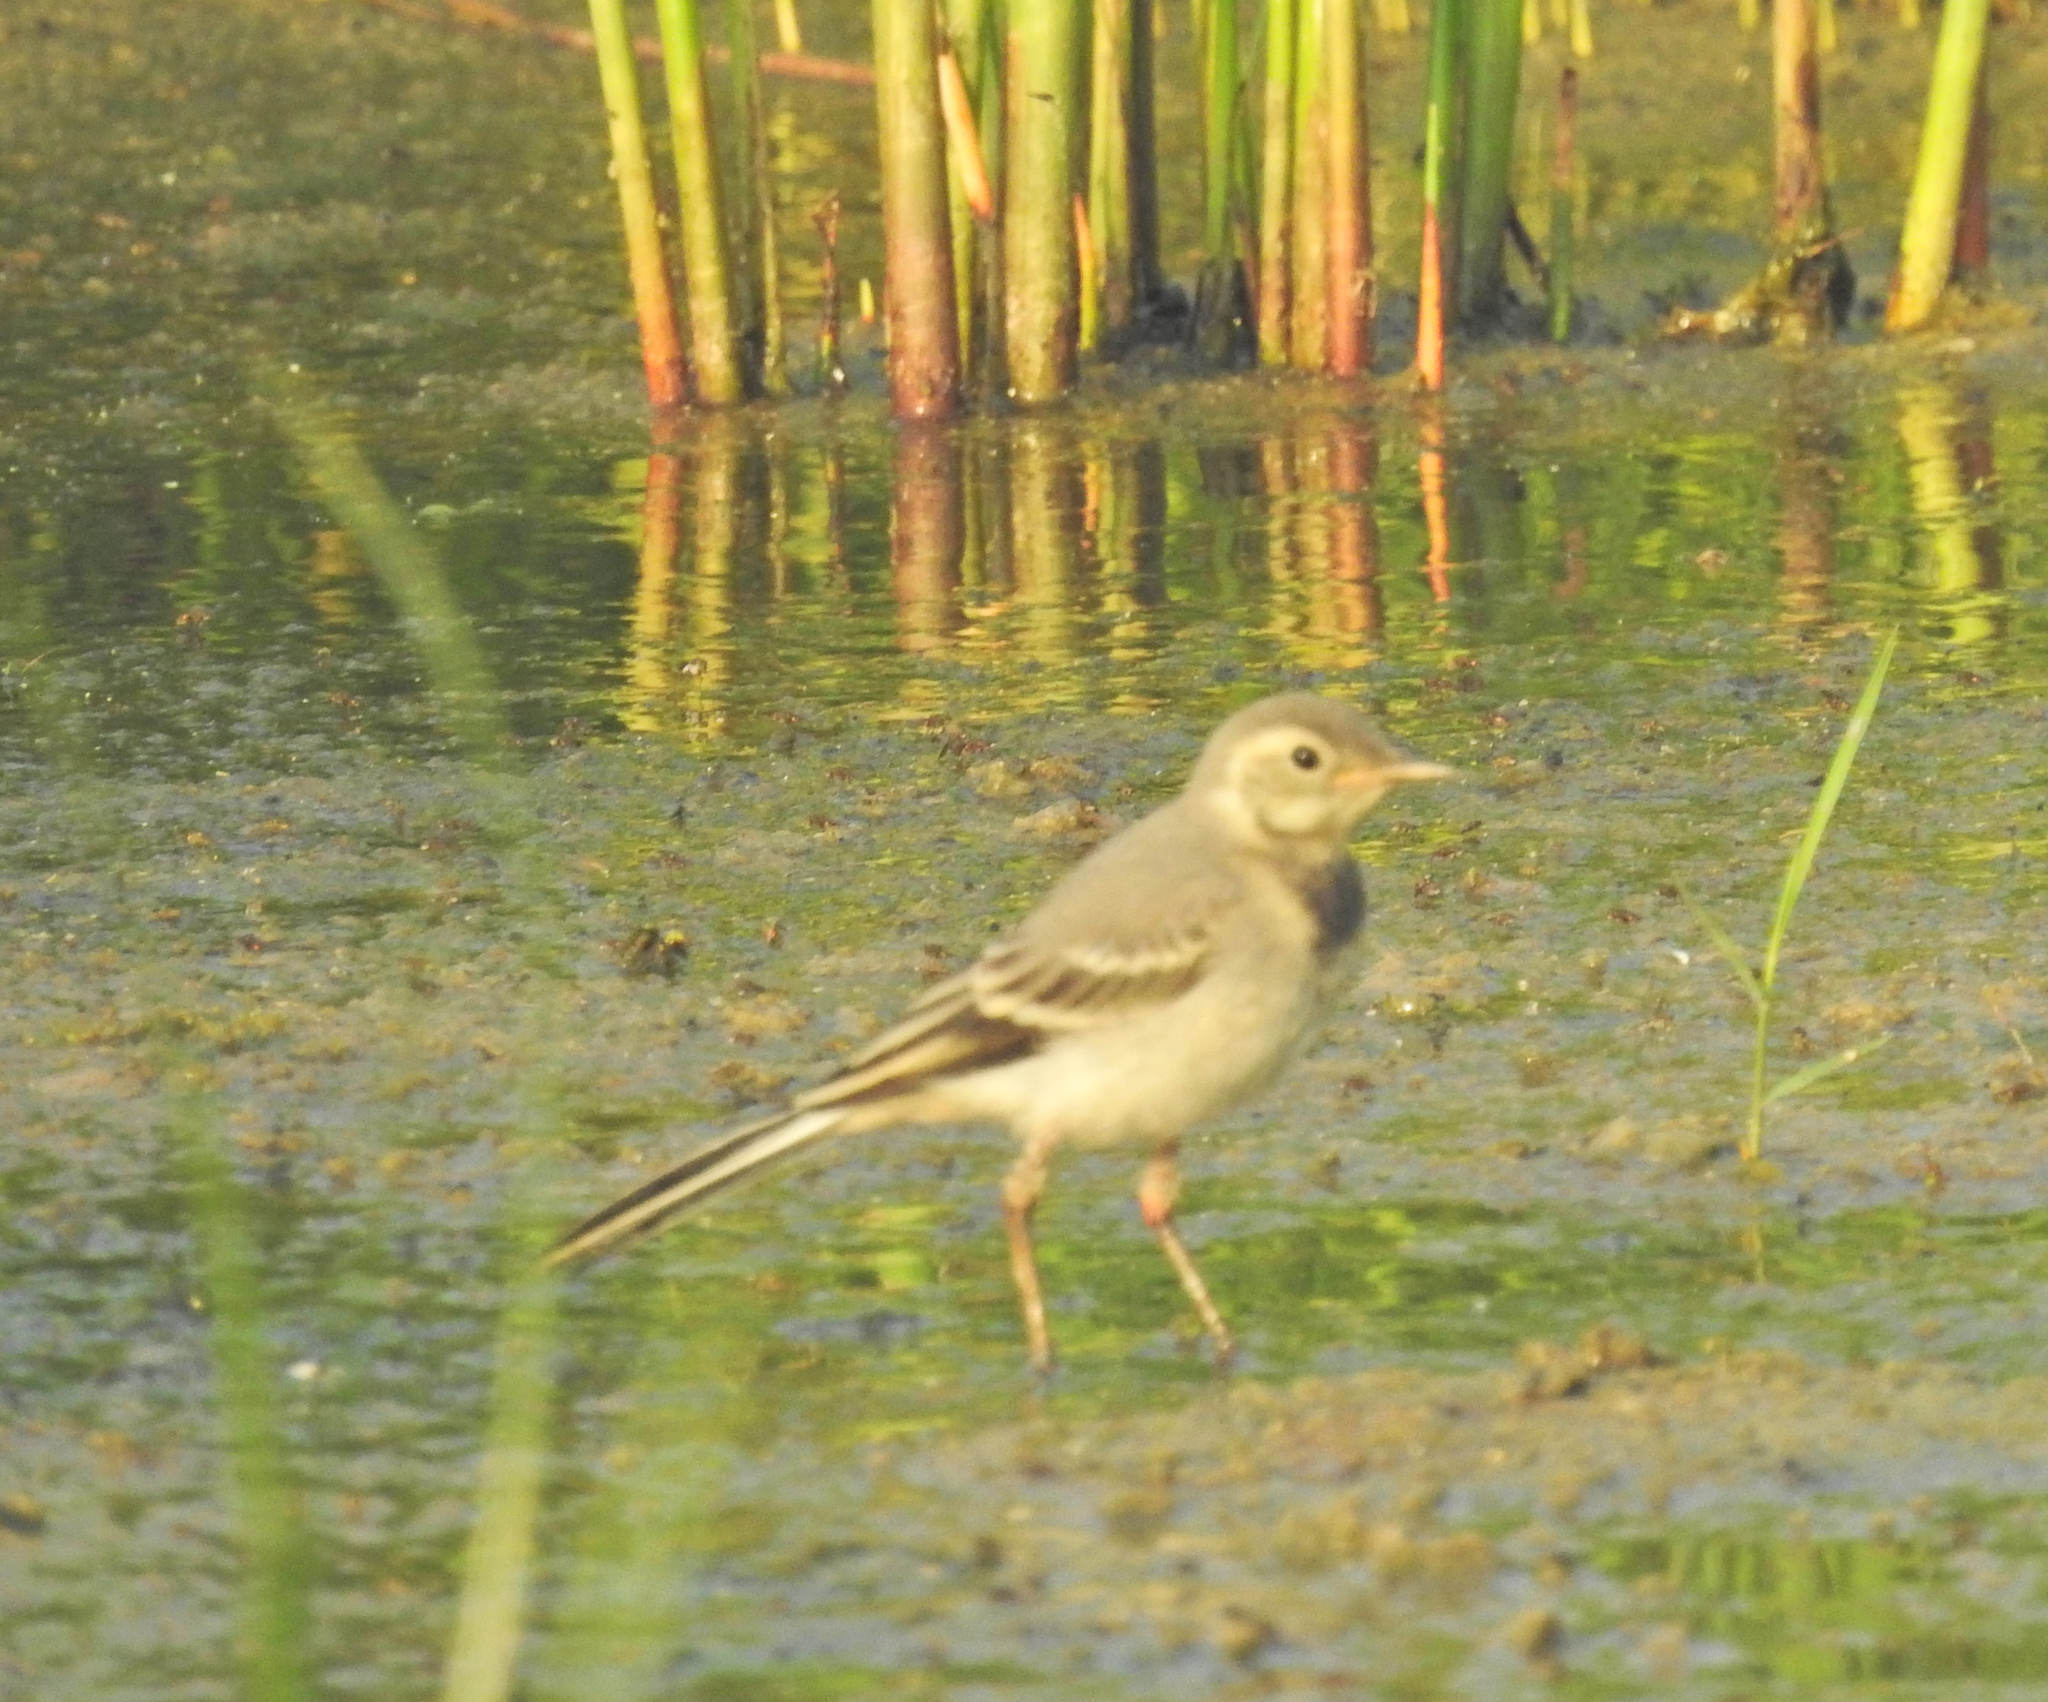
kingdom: Animalia
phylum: Chordata
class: Aves
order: Passeriformes
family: Motacillidae
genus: Motacilla
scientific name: Motacilla alba
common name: White wagtail
